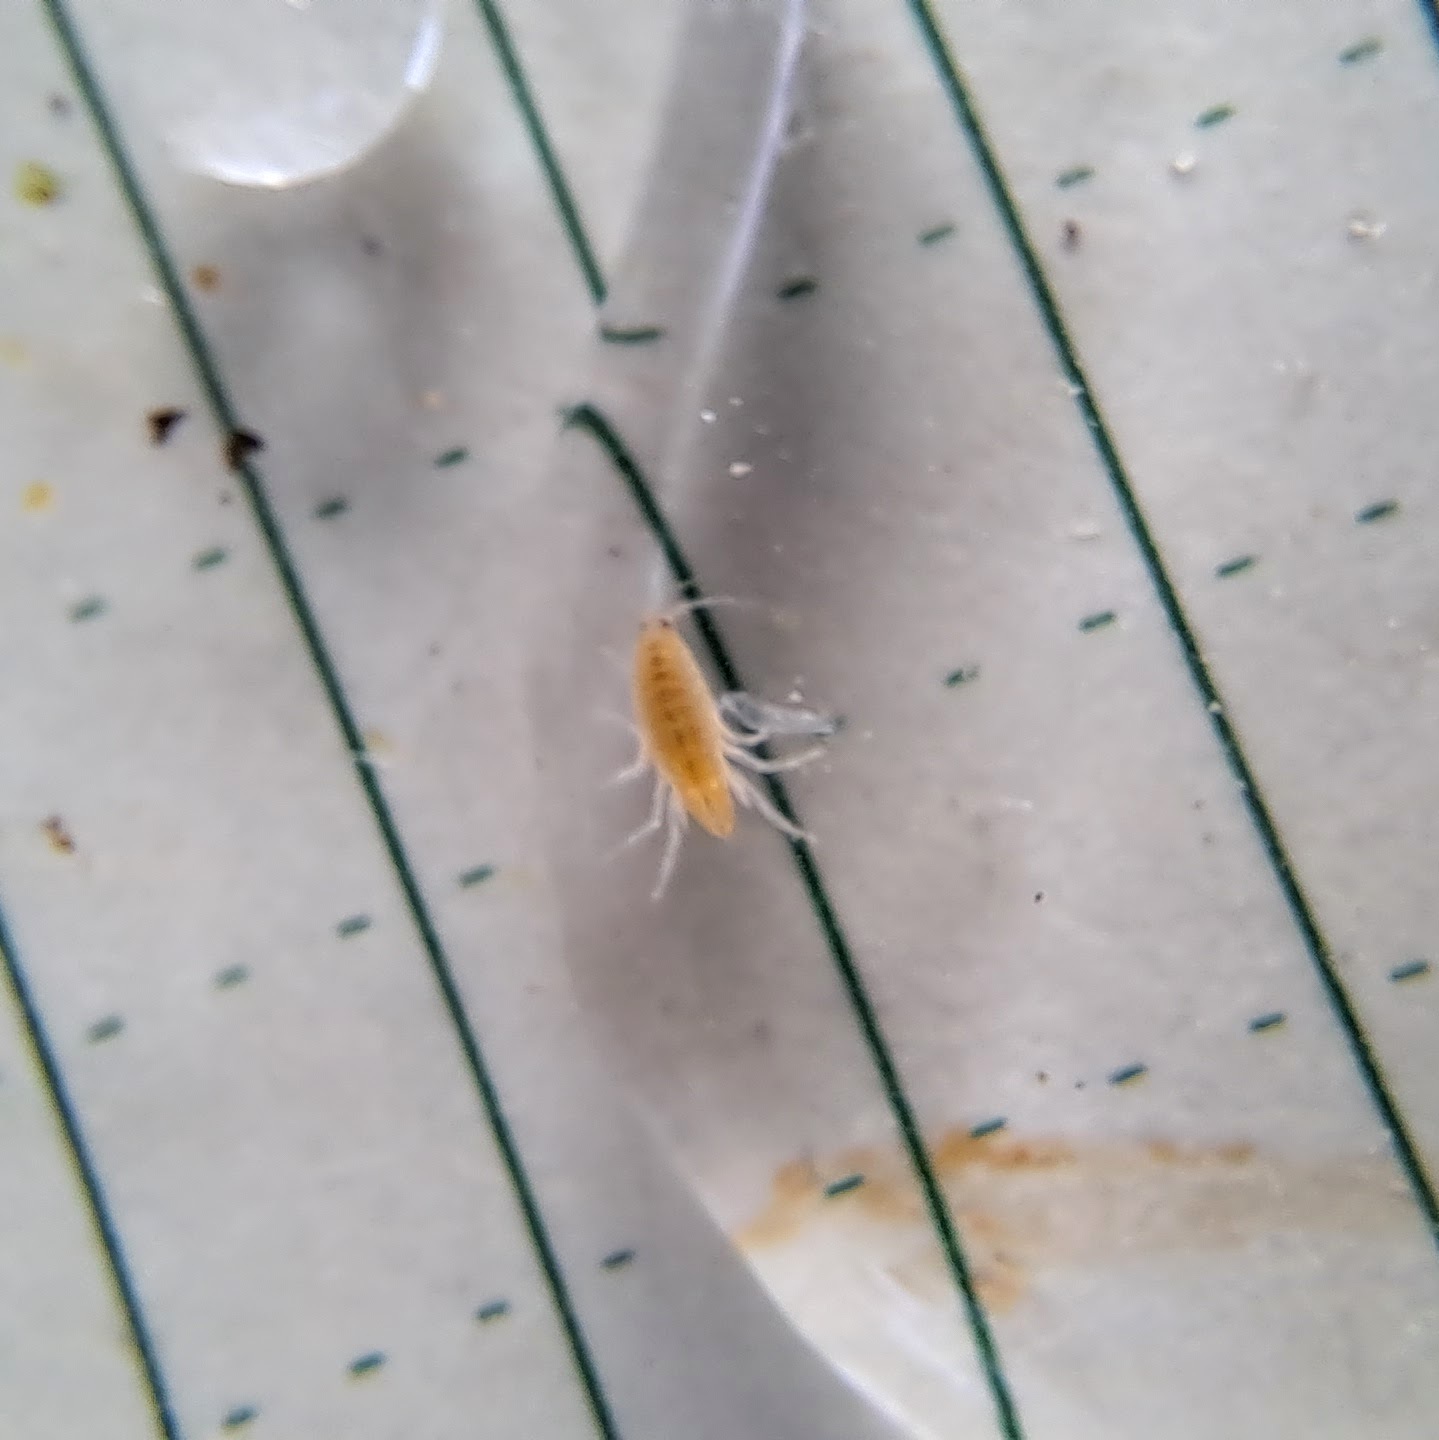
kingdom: Animalia
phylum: Arthropoda
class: Malacostraca
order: Amphipoda
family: Hyalellidae
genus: Hyalella
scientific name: Hyalella
